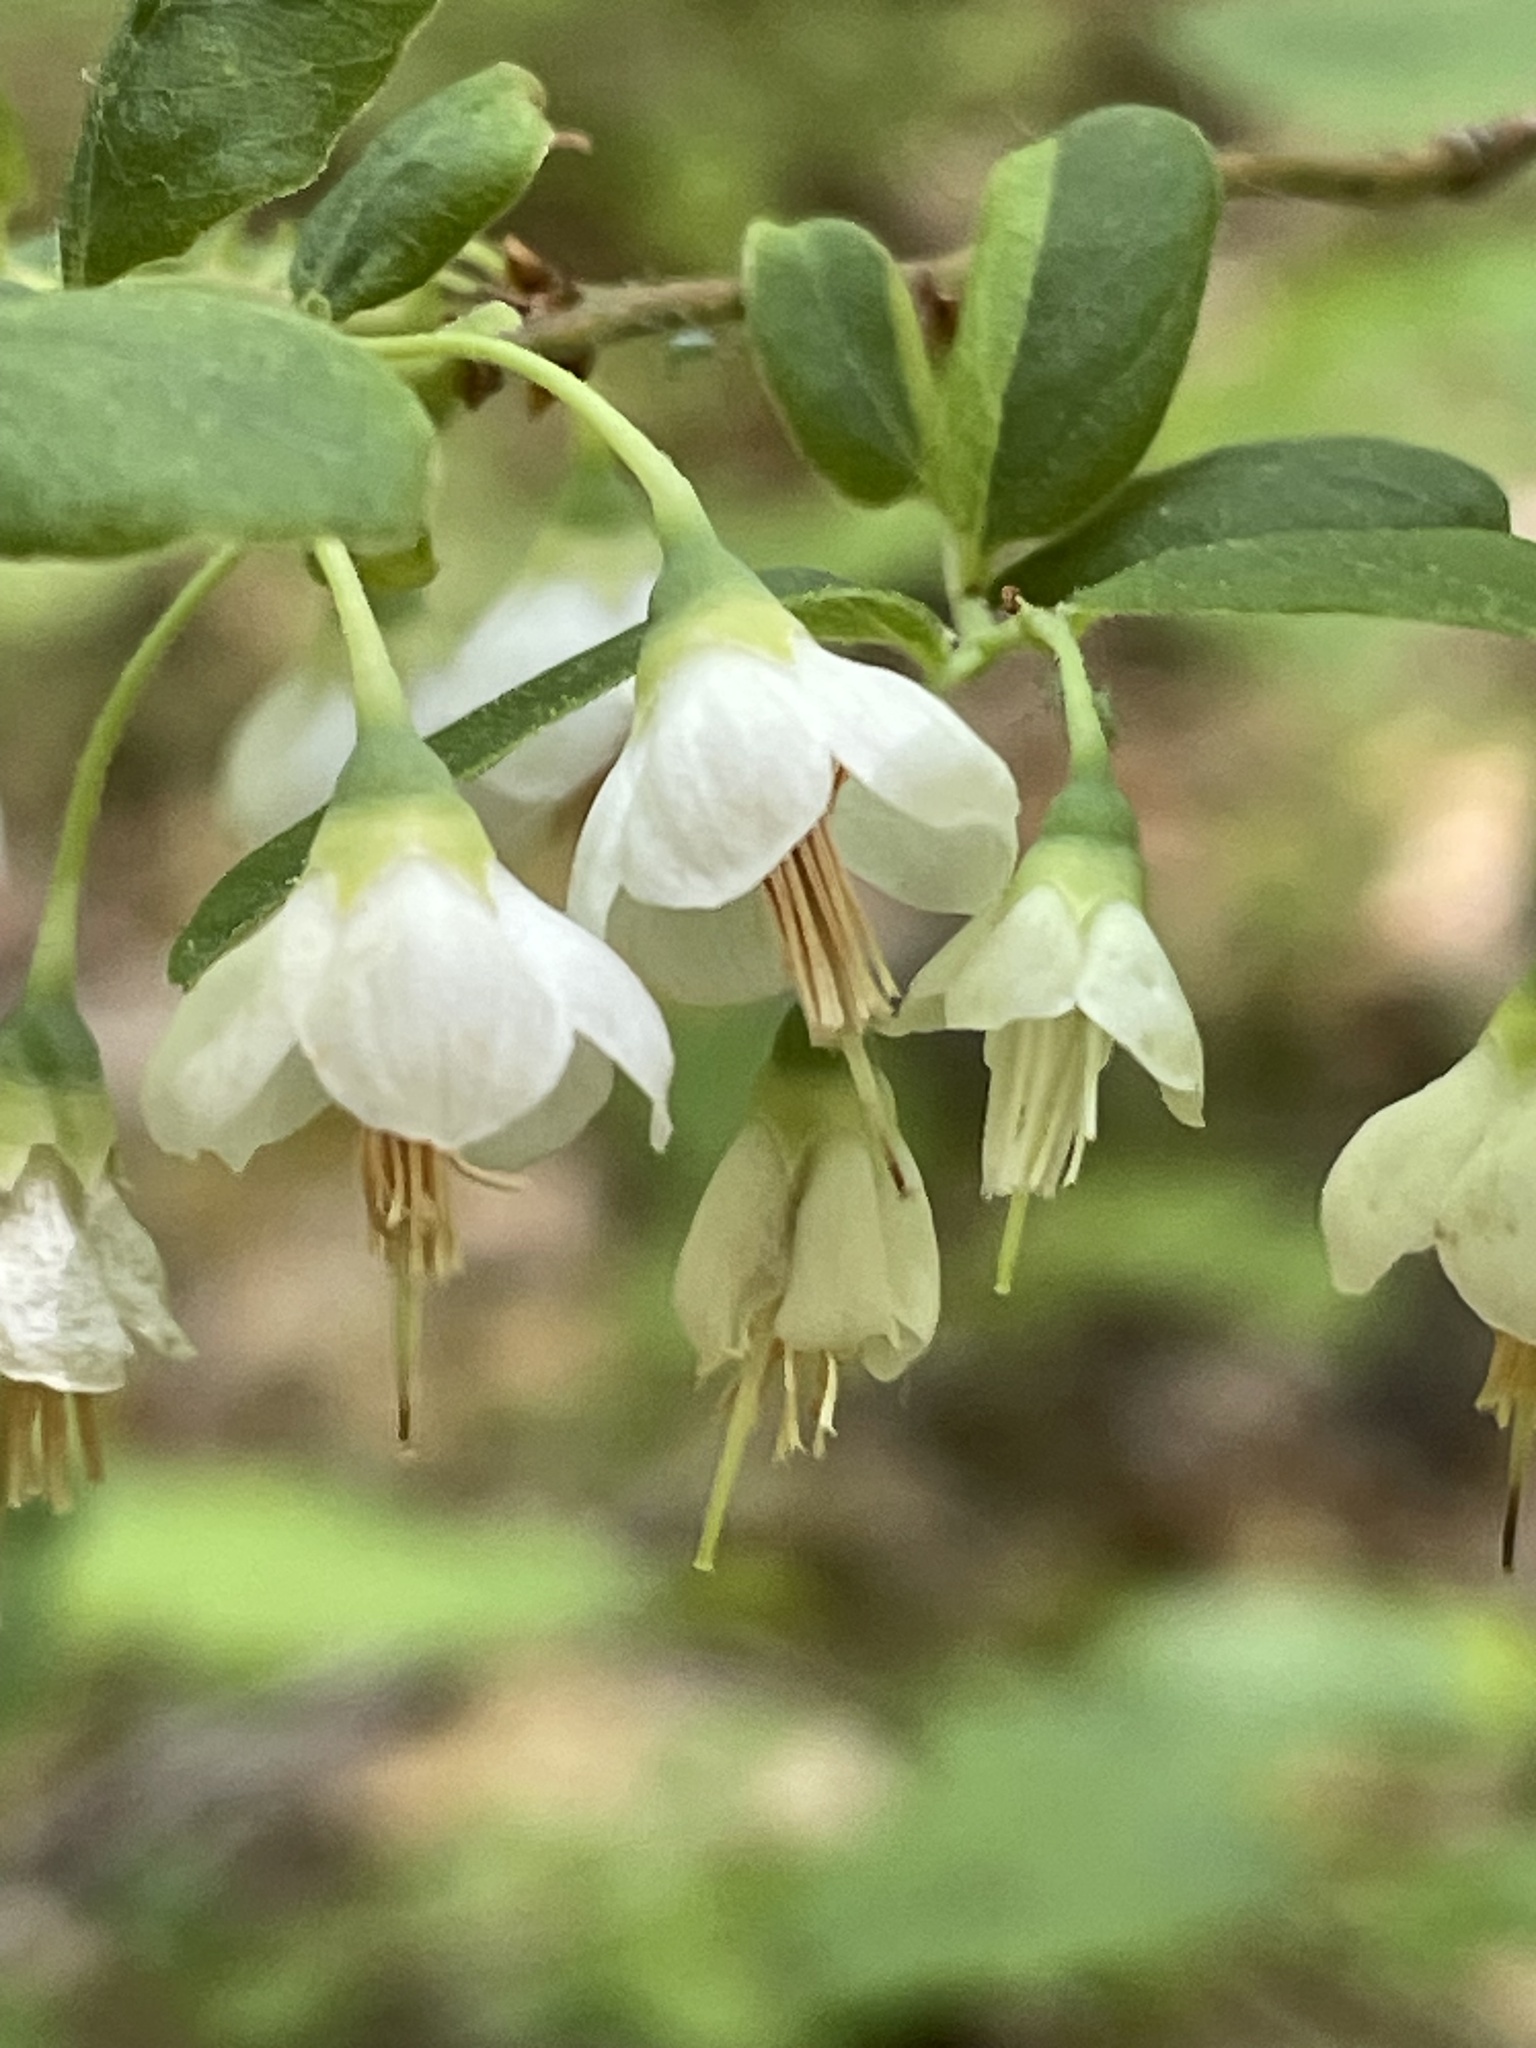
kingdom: Plantae
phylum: Tracheophyta
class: Magnoliopsida
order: Ericales
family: Ericaceae
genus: Vaccinium
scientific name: Vaccinium stamineum
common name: Deerberry
